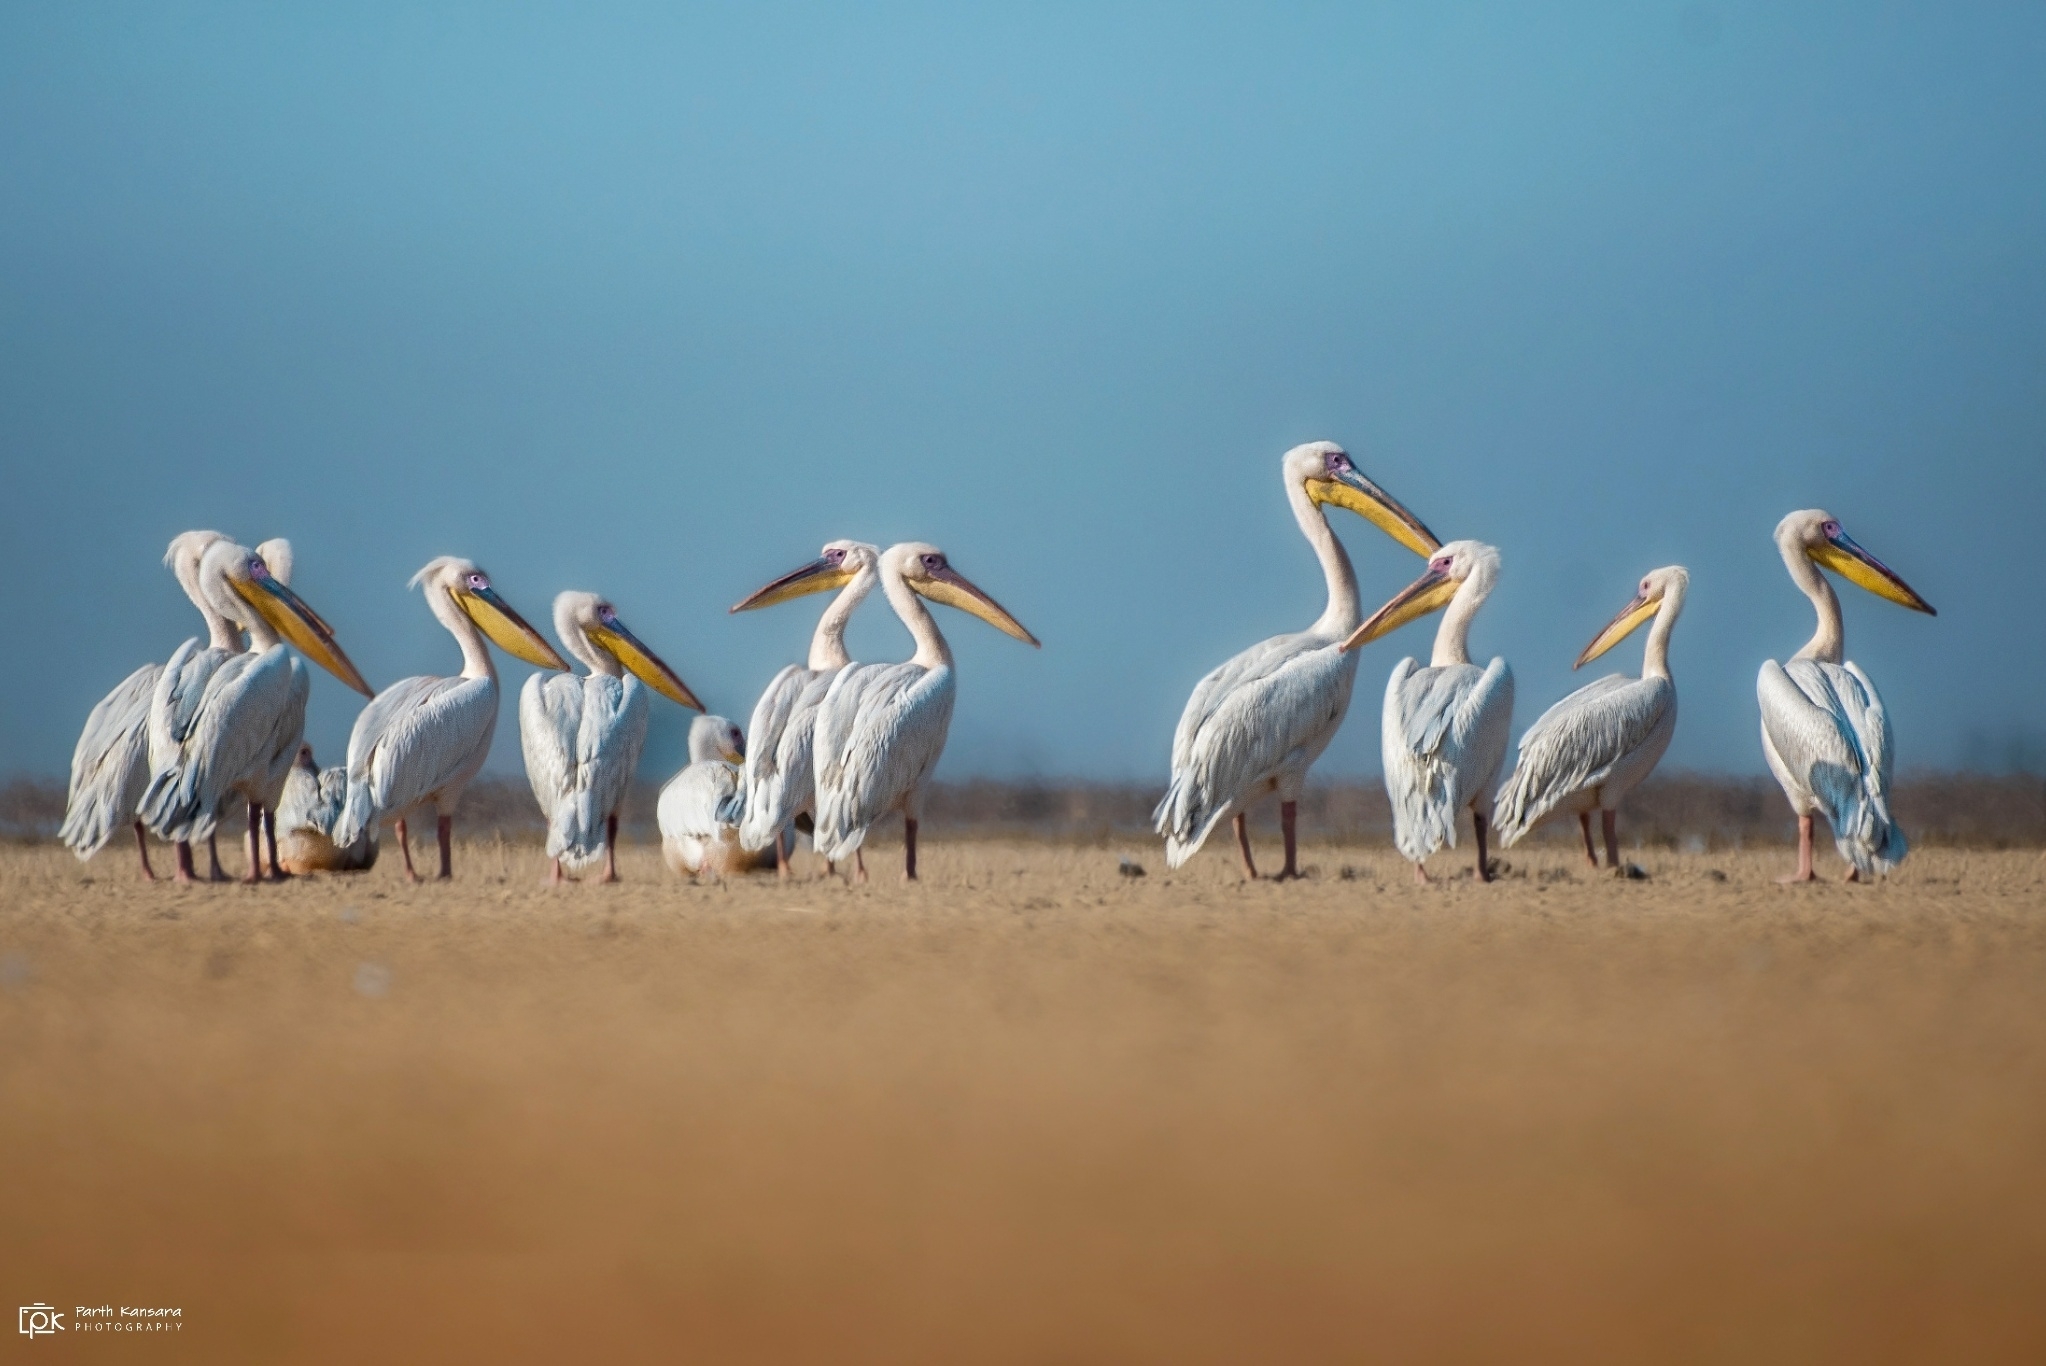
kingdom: Animalia
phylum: Chordata
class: Aves
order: Pelecaniformes
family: Pelecanidae
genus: Pelecanus
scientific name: Pelecanus onocrotalus
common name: Great white pelican
